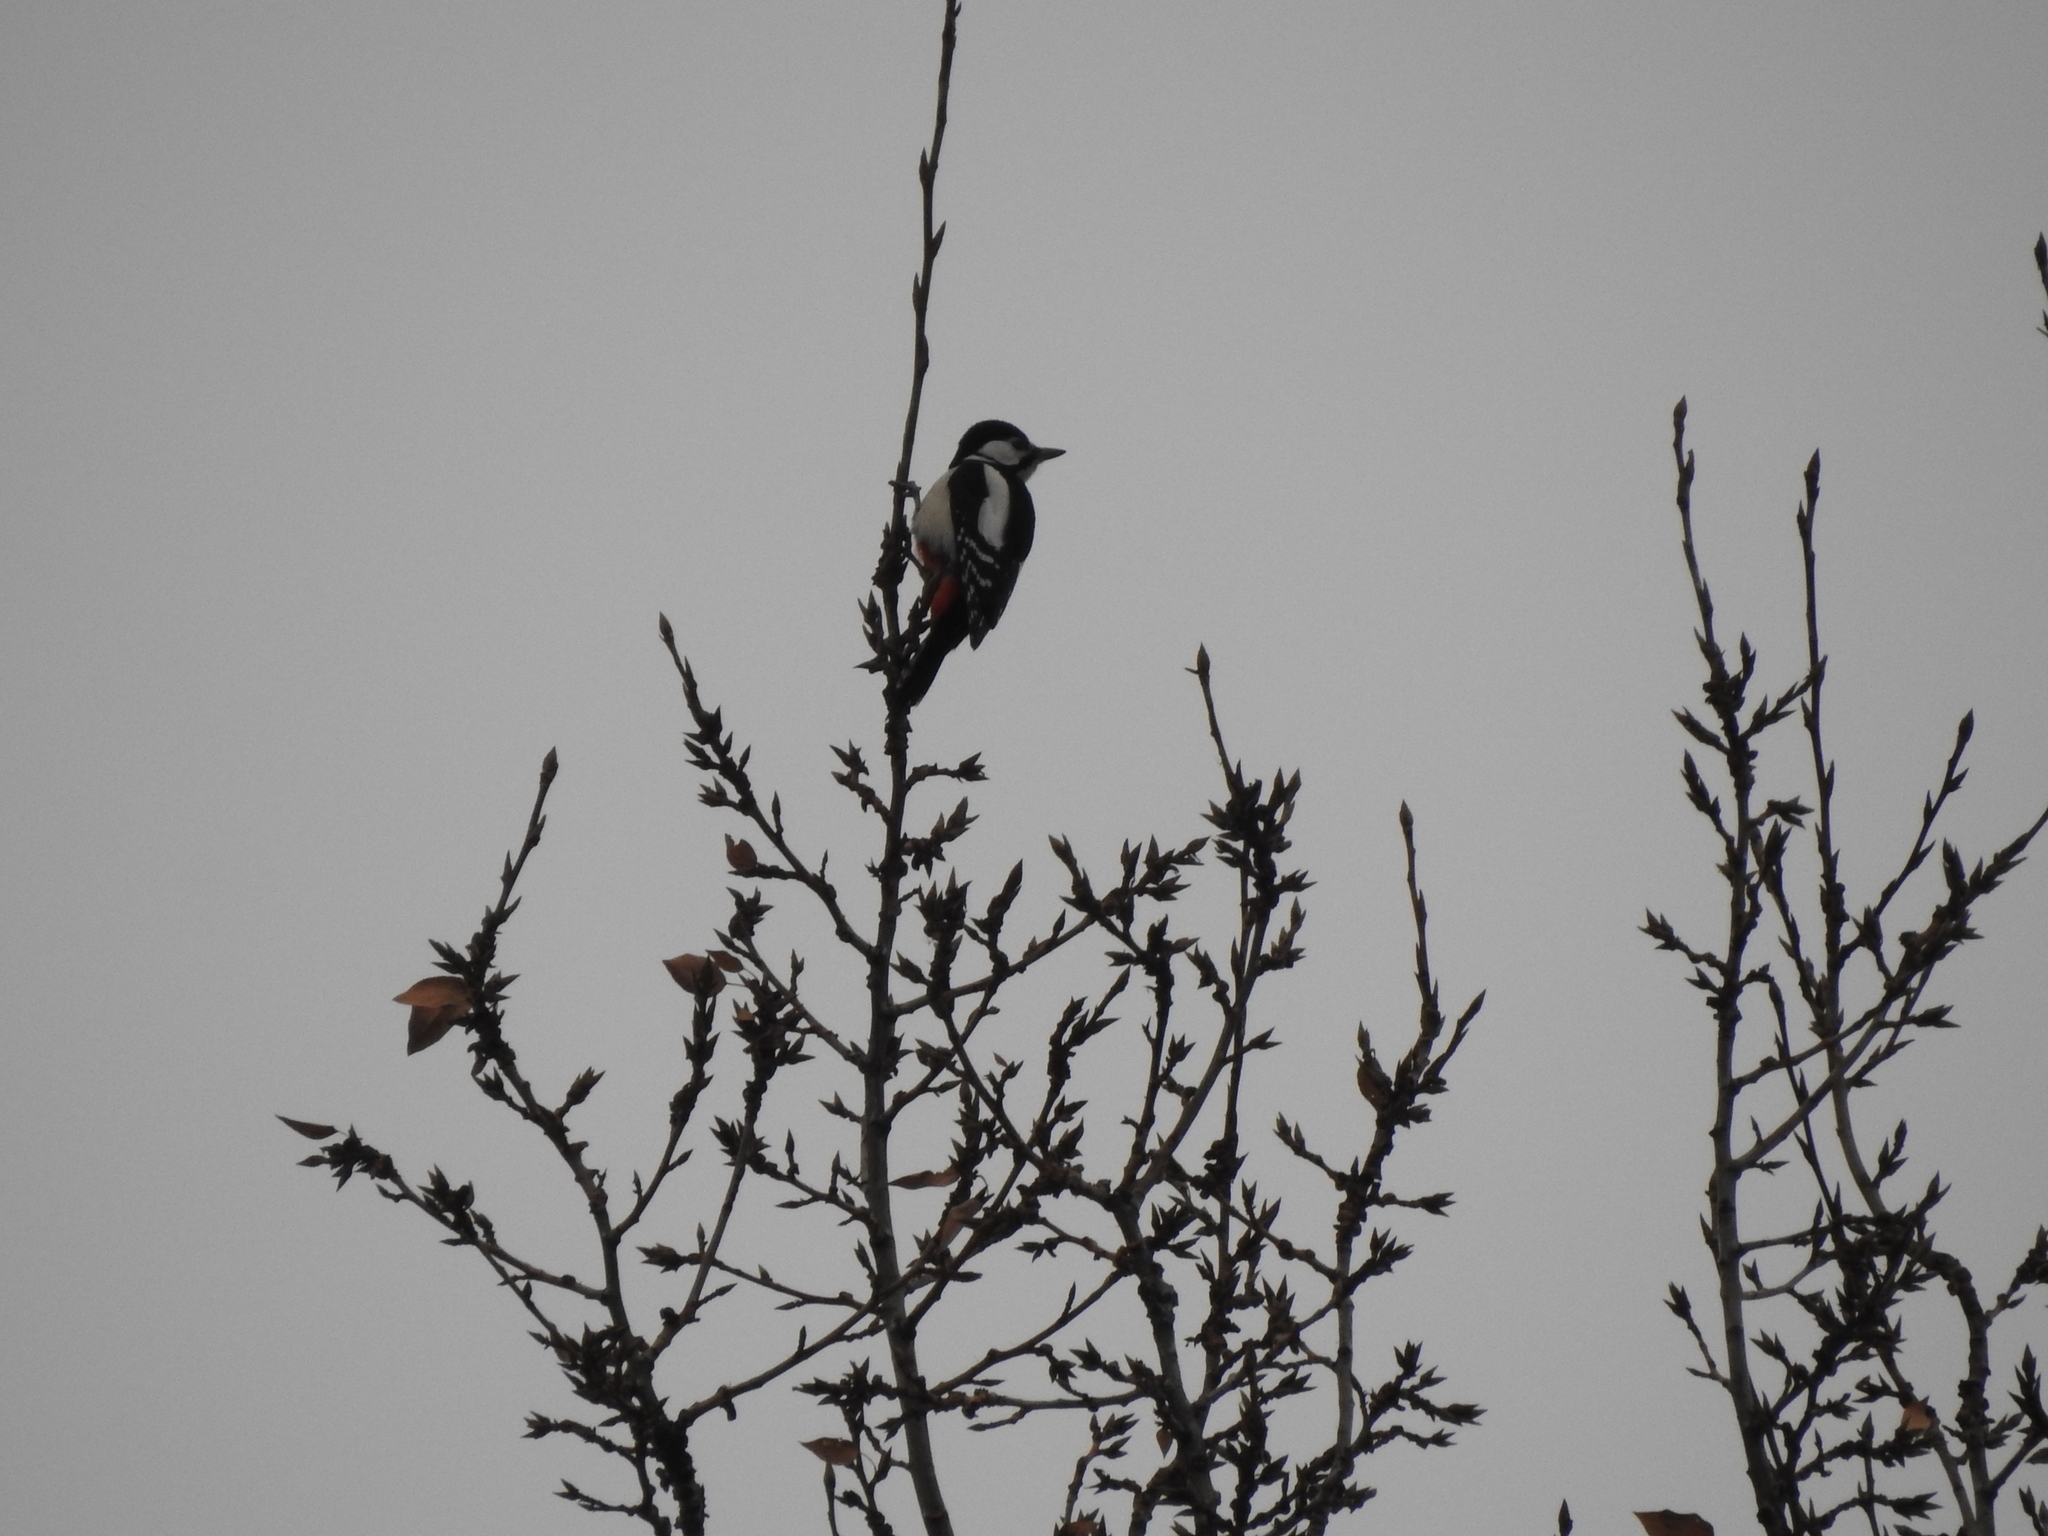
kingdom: Animalia
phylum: Chordata
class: Aves
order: Piciformes
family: Picidae
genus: Dendrocopos
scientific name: Dendrocopos major
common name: Great spotted woodpecker
